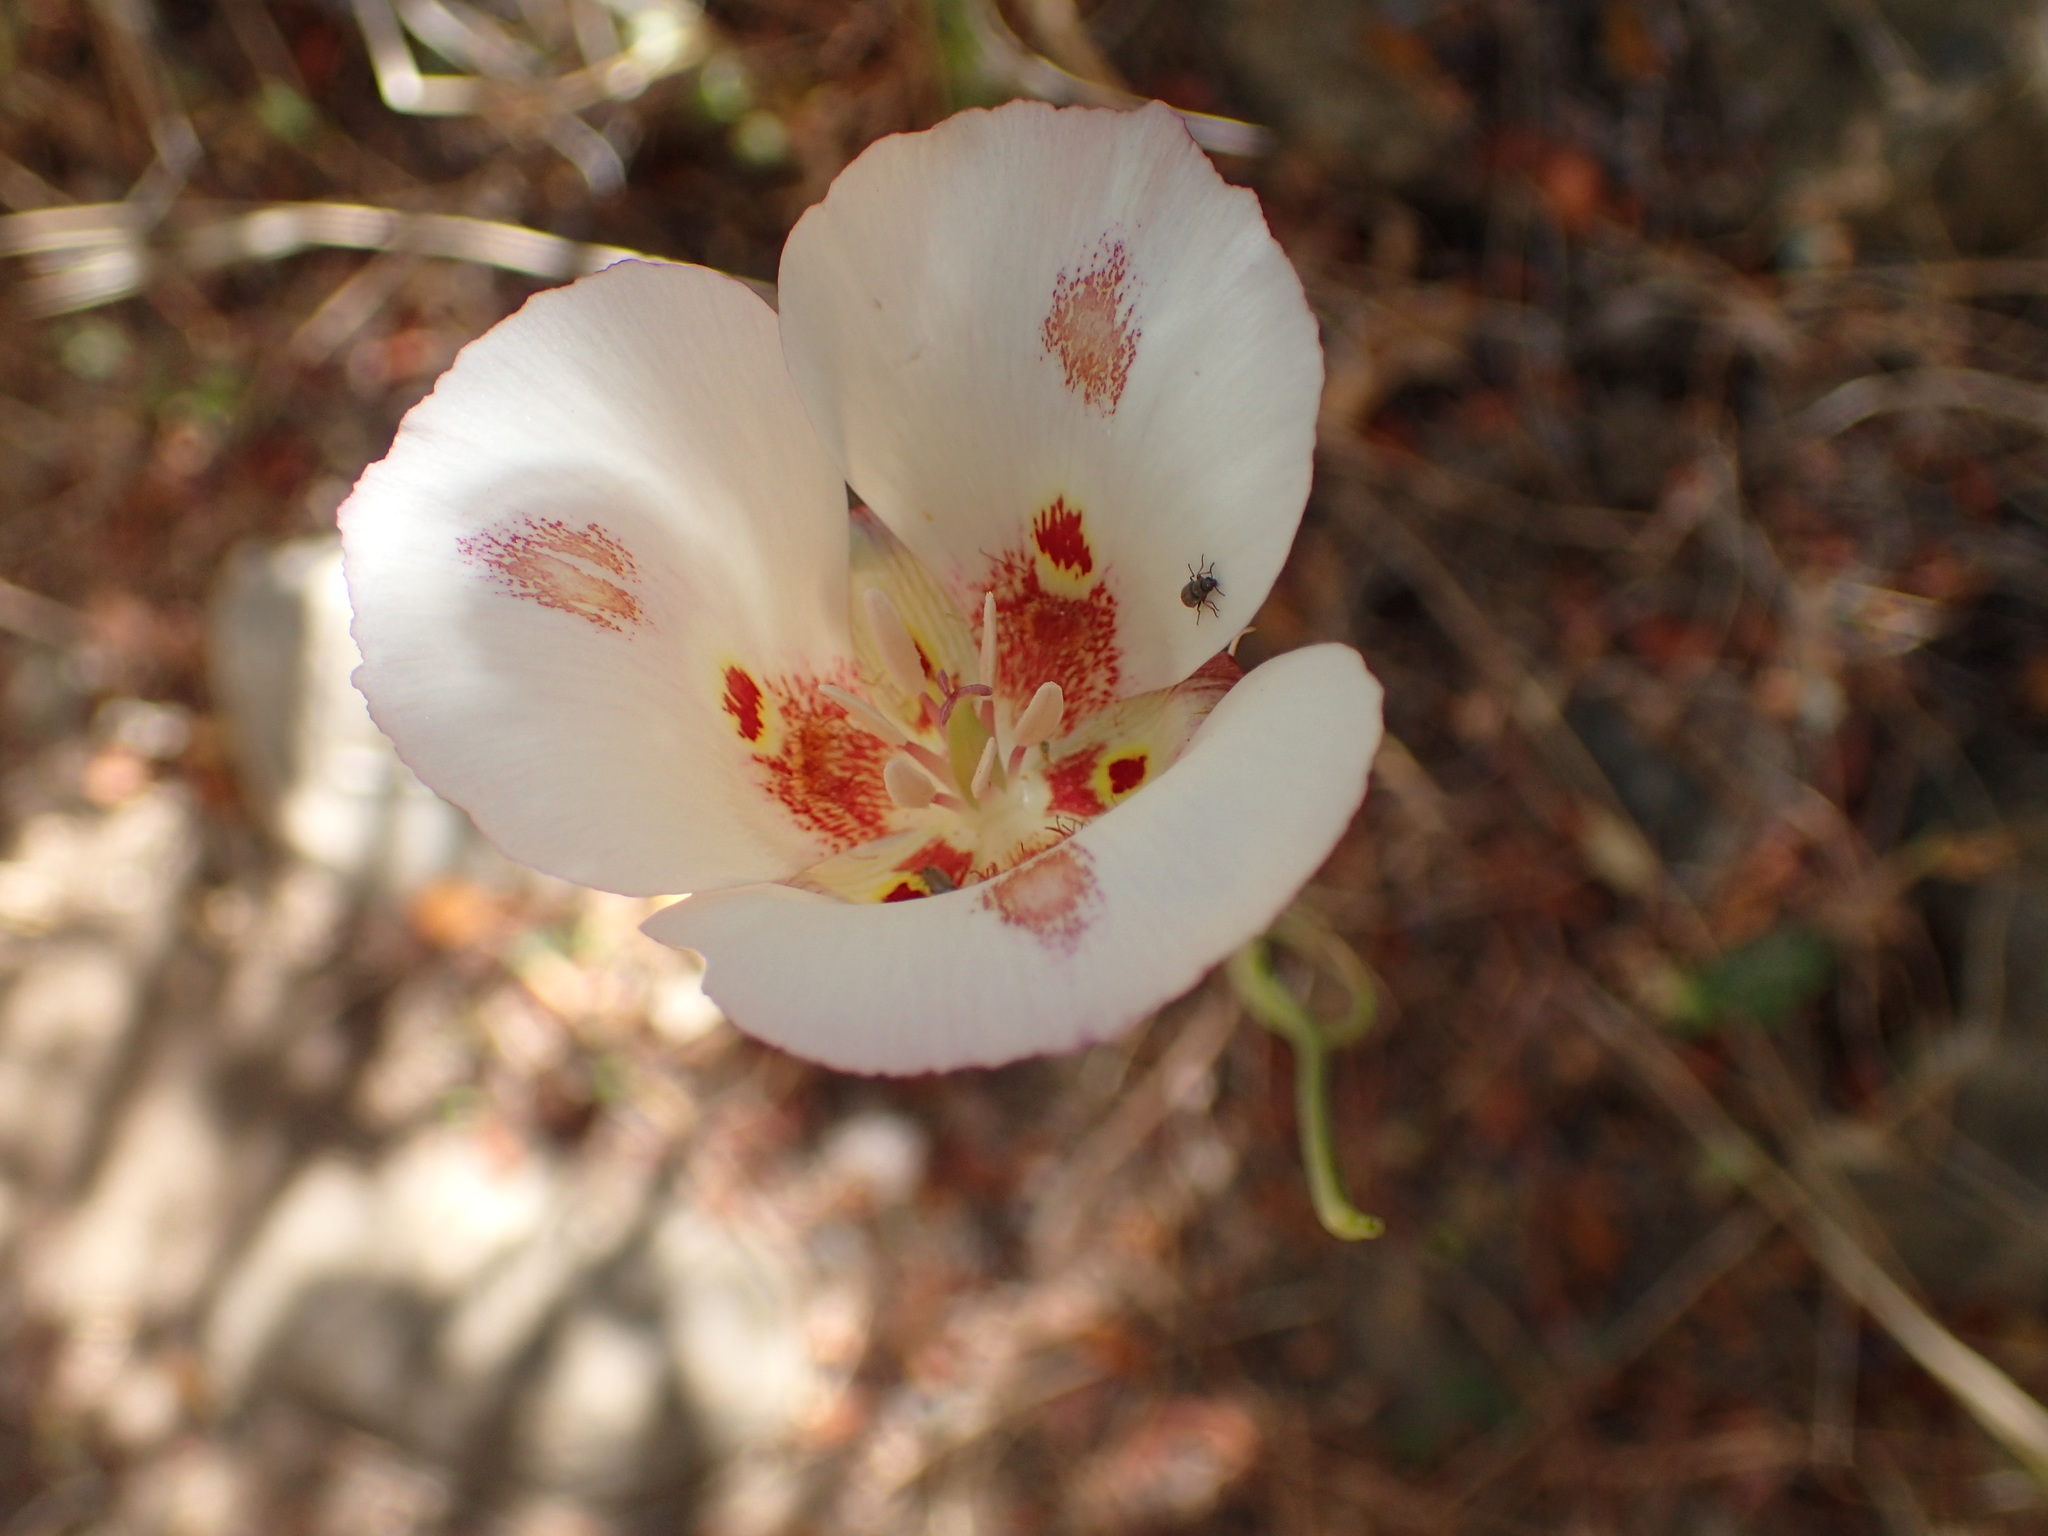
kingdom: Plantae
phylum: Tracheophyta
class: Liliopsida
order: Liliales
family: Liliaceae
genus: Calochortus
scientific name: Calochortus venustus
